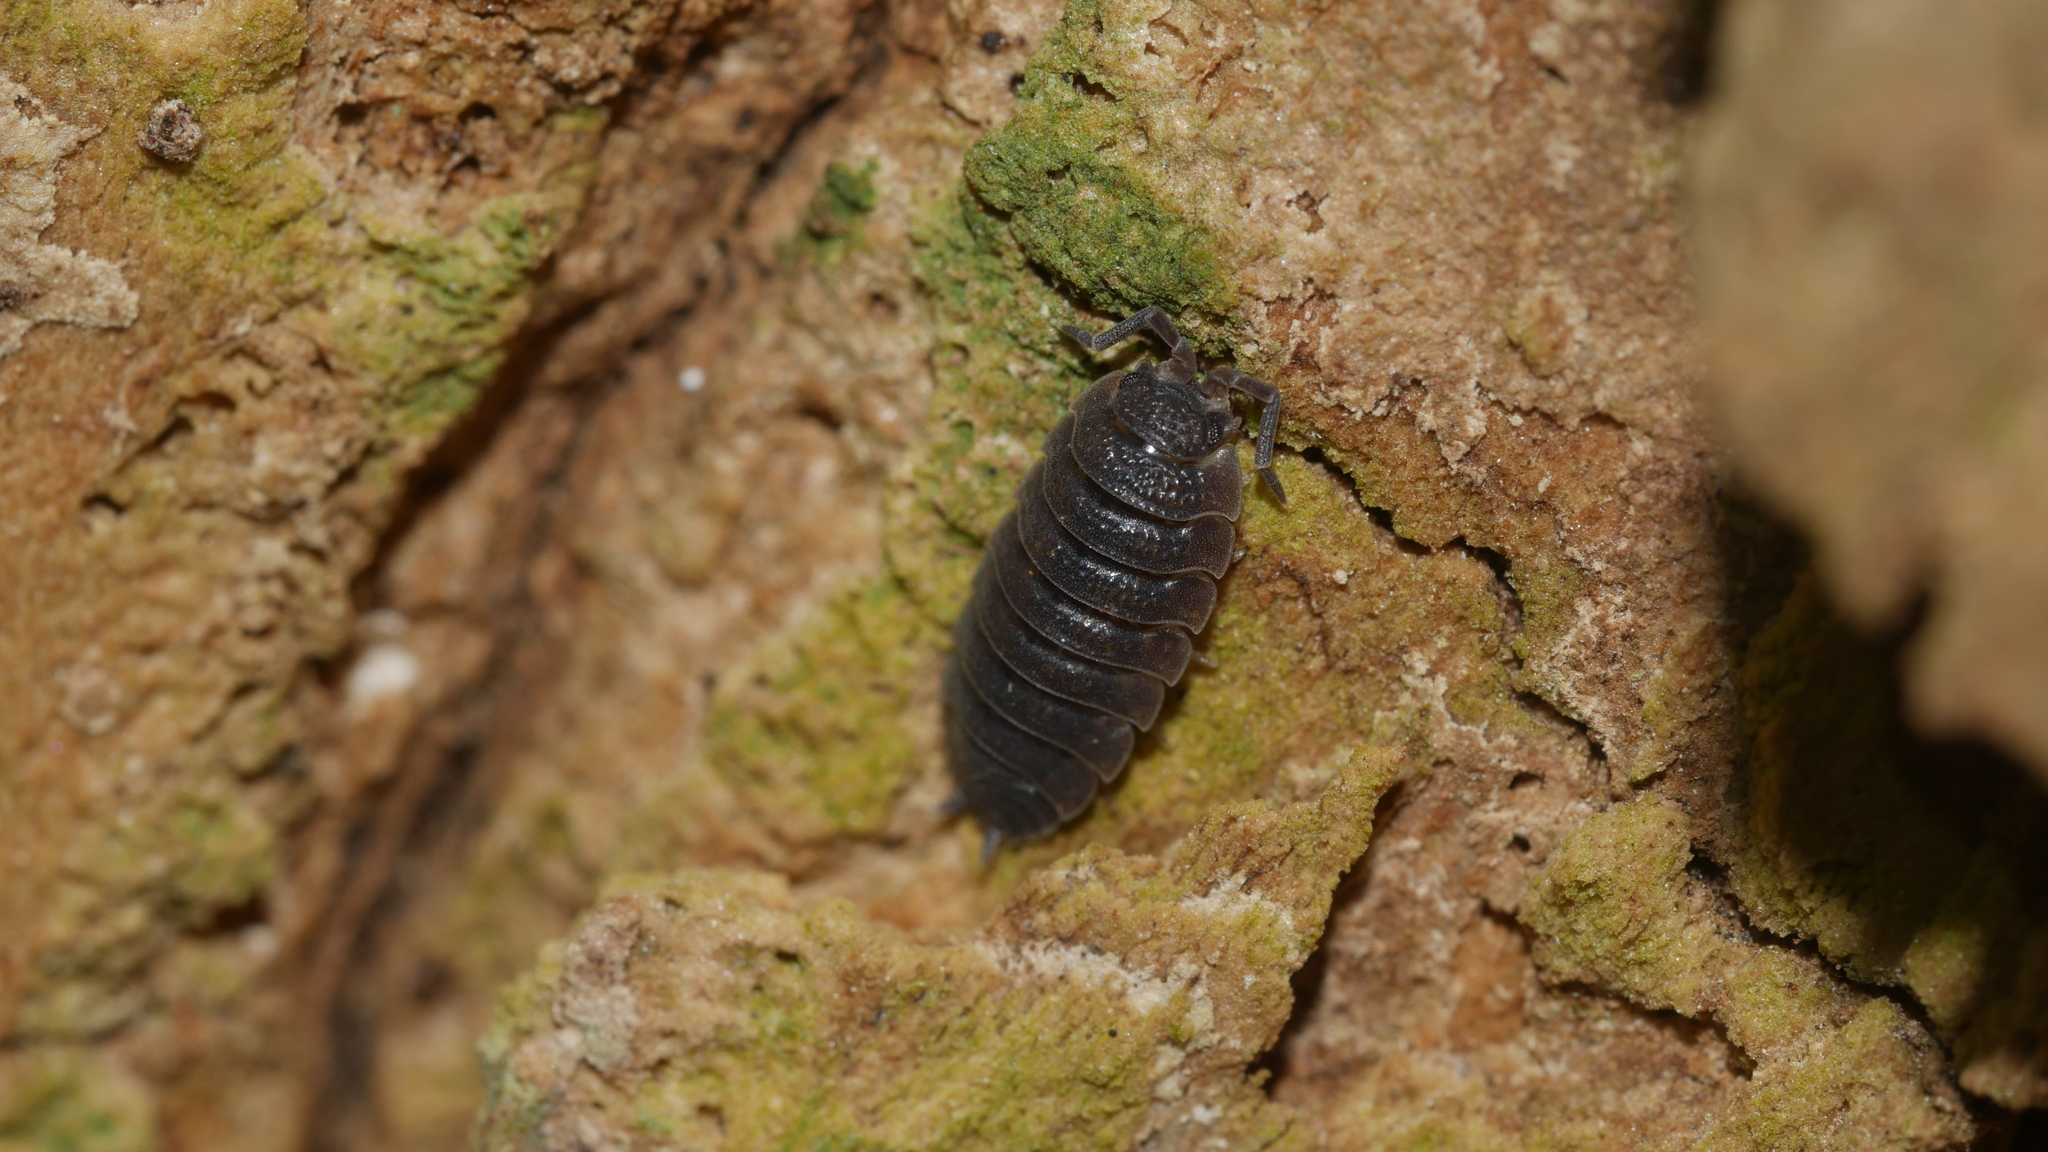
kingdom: Animalia
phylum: Arthropoda
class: Malacostraca
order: Isopoda
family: Porcellionidae
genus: Porcellio
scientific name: Porcellio scaber
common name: Common rough woodlouse
